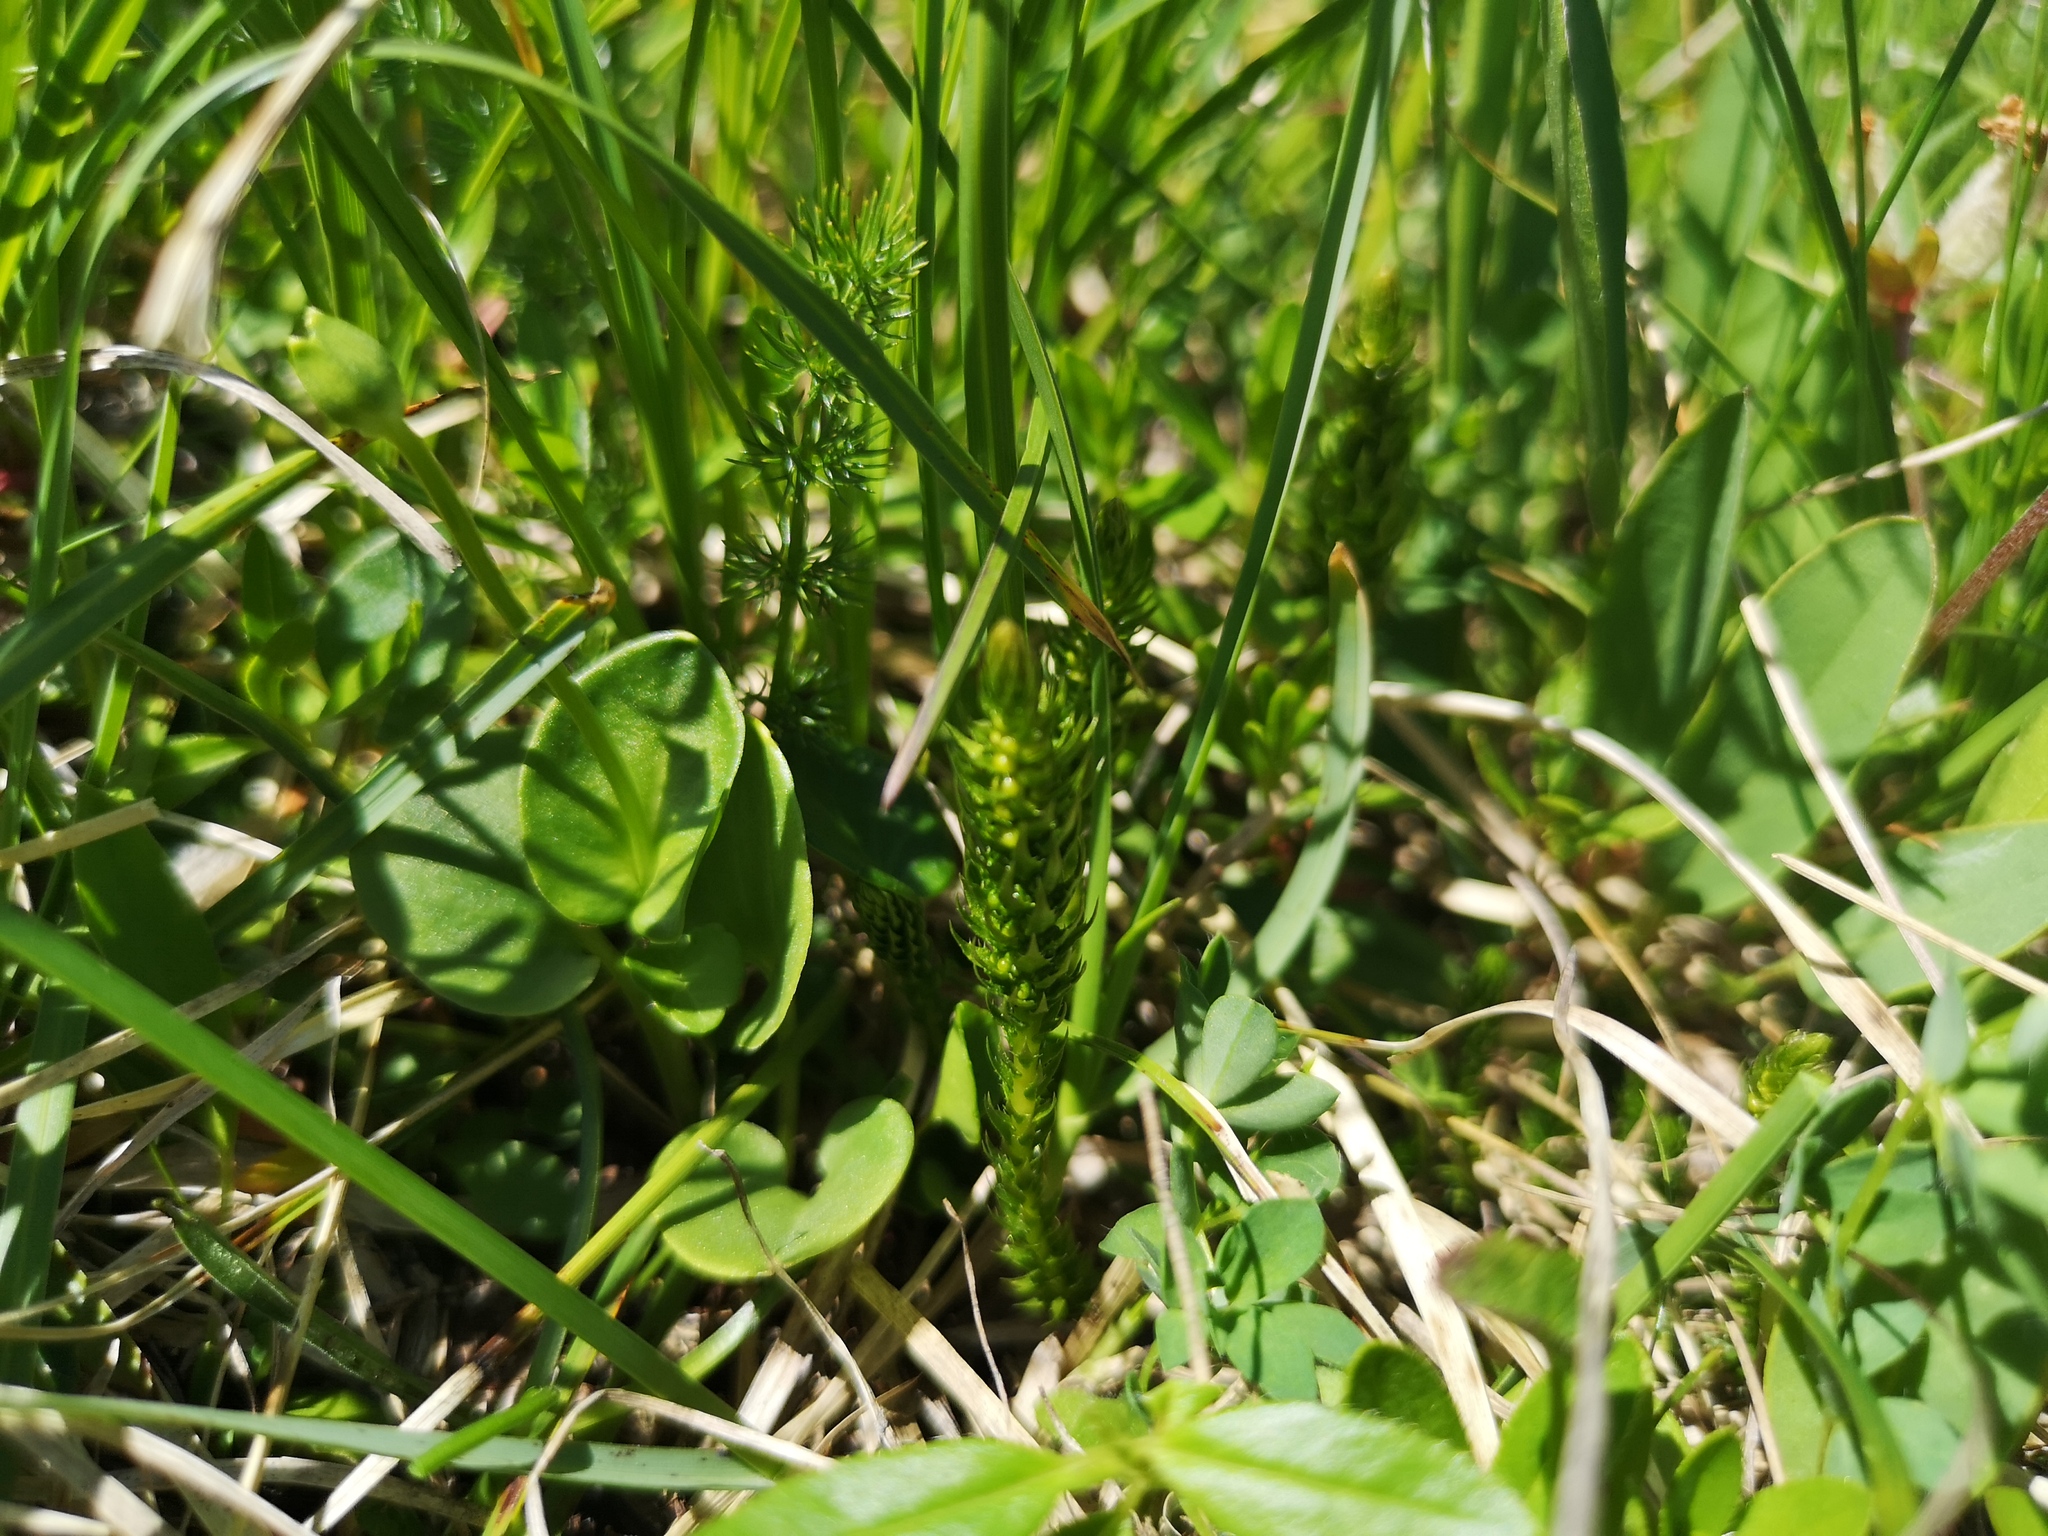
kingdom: Plantae
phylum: Tracheophyta
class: Lycopodiopsida
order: Selaginellales
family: Selaginellaceae
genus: Selaginella
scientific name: Selaginella selaginoides
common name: Prickly mountain-moss
